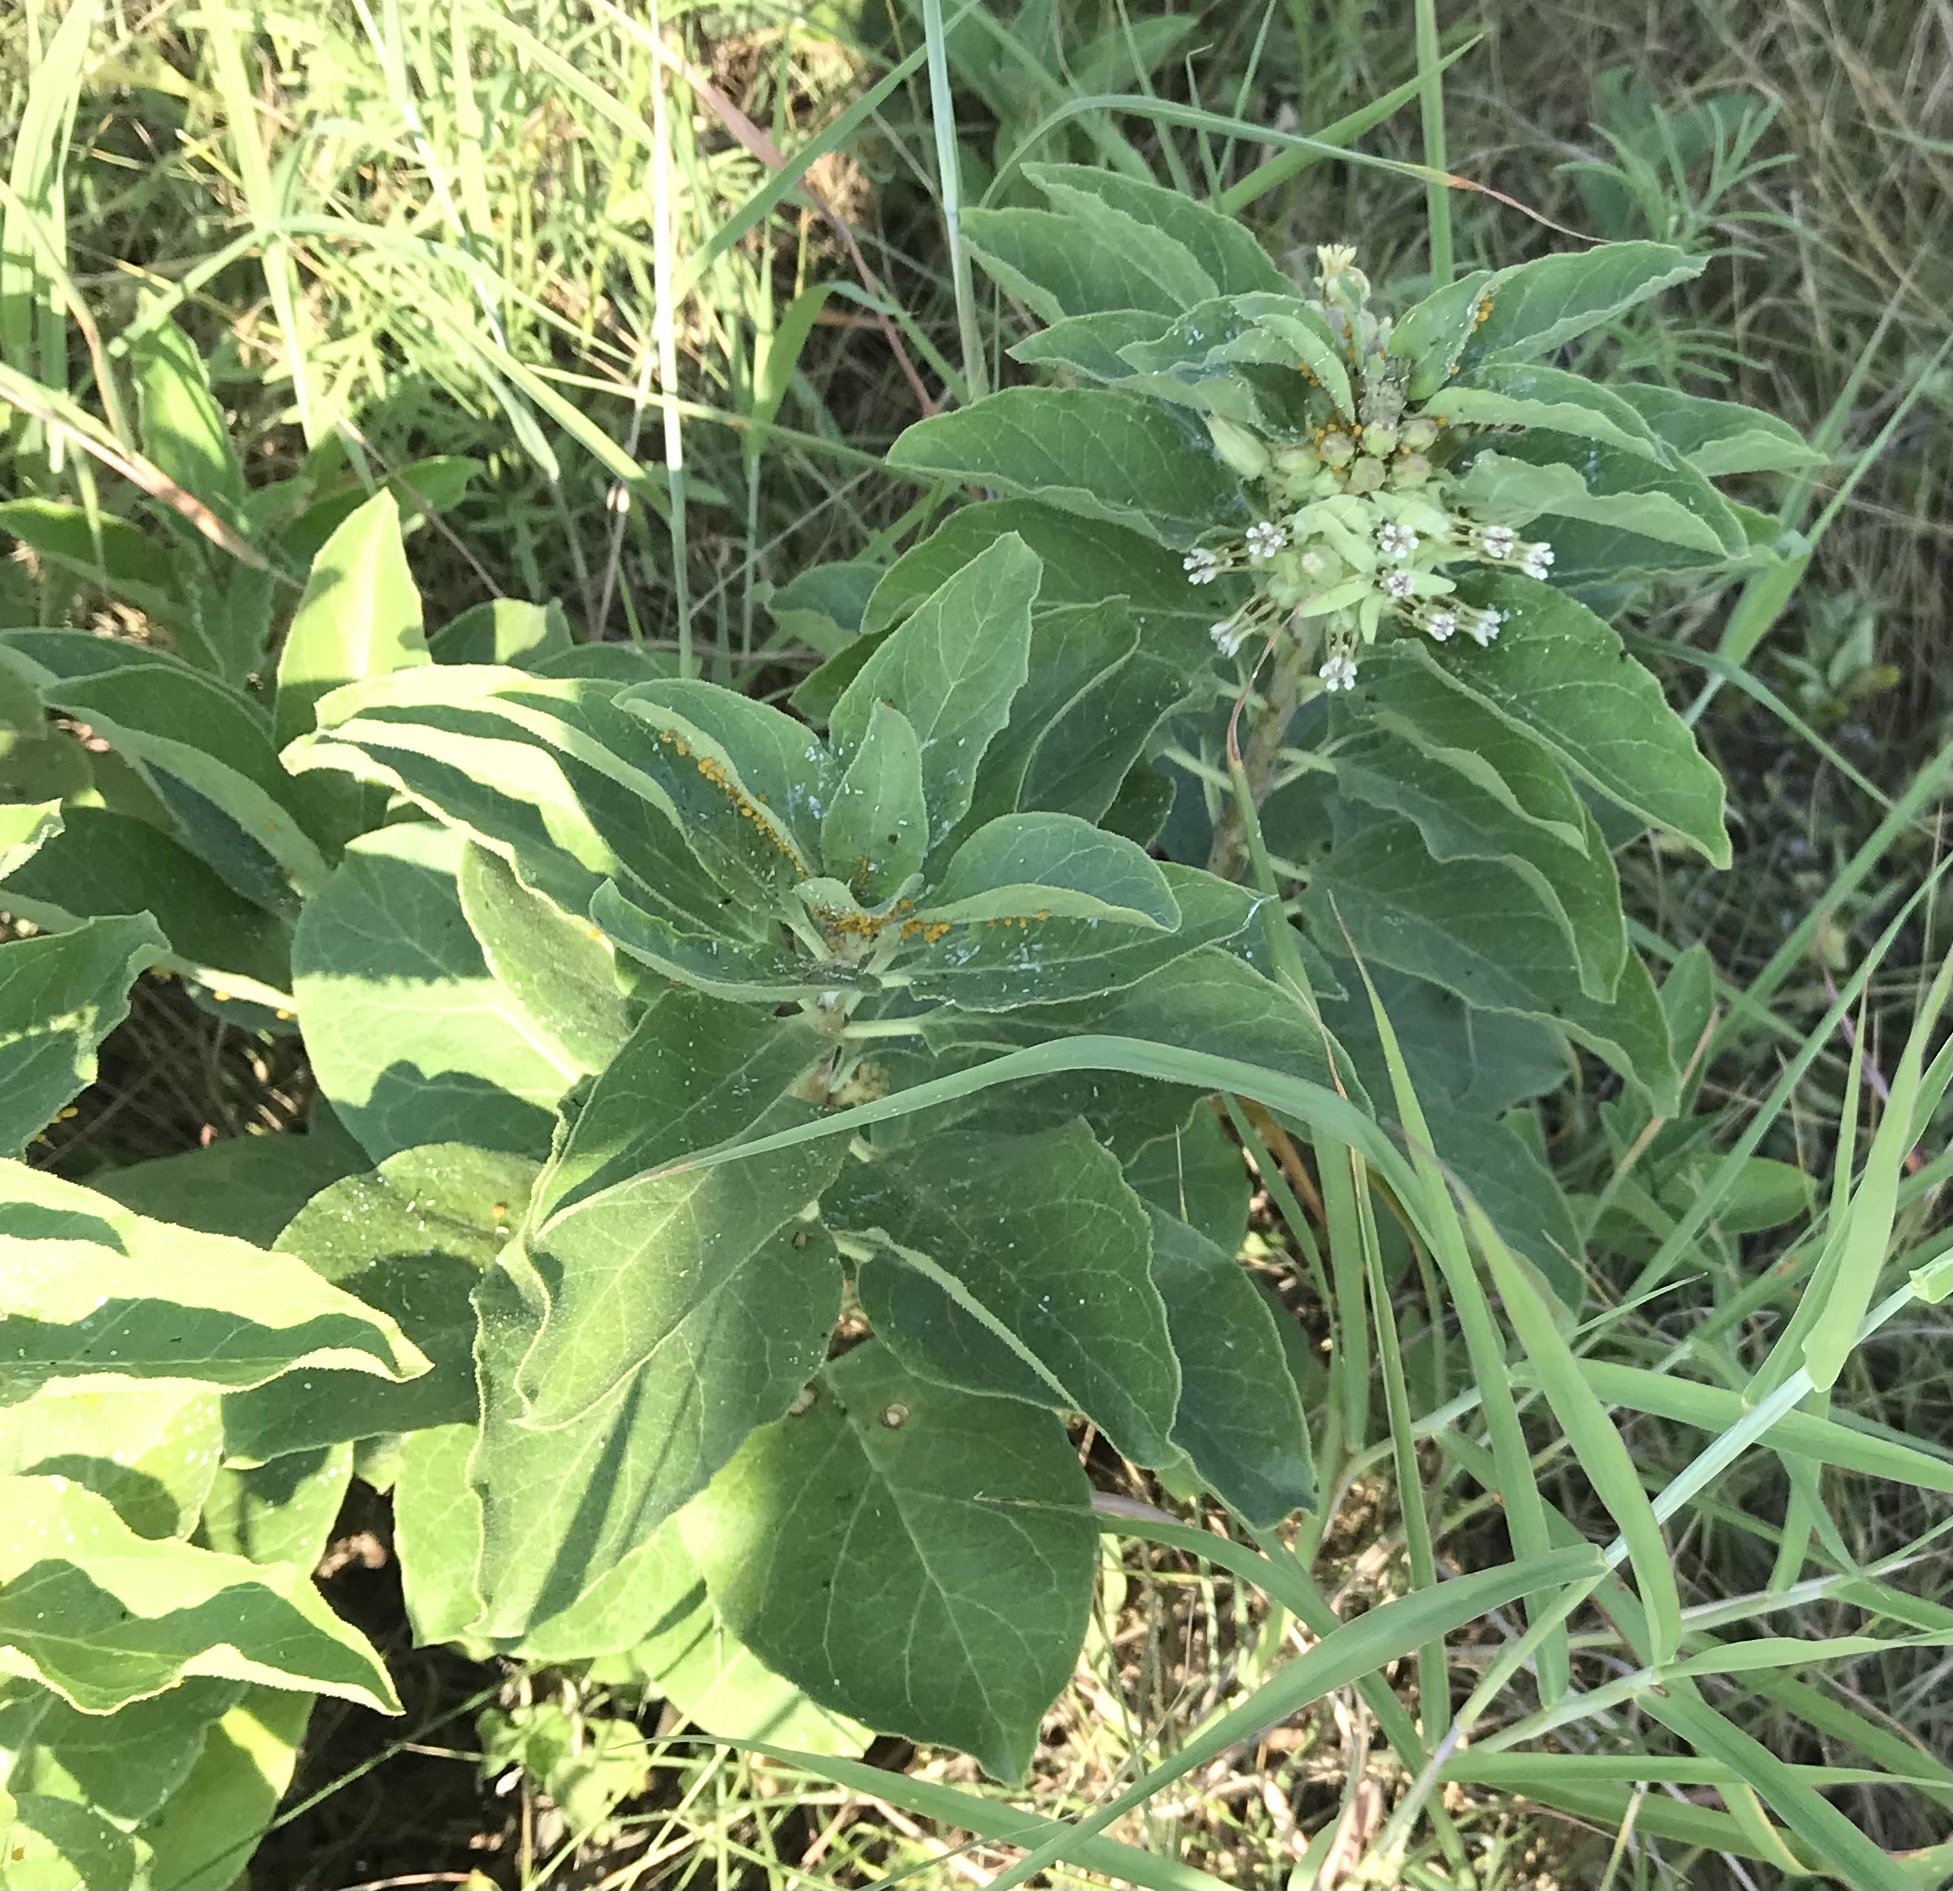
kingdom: Plantae
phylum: Tracheophyta
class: Magnoliopsida
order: Gentianales
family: Apocynaceae
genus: Asclepias
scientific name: Asclepias oenotheroides
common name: Zizotes milkweed
